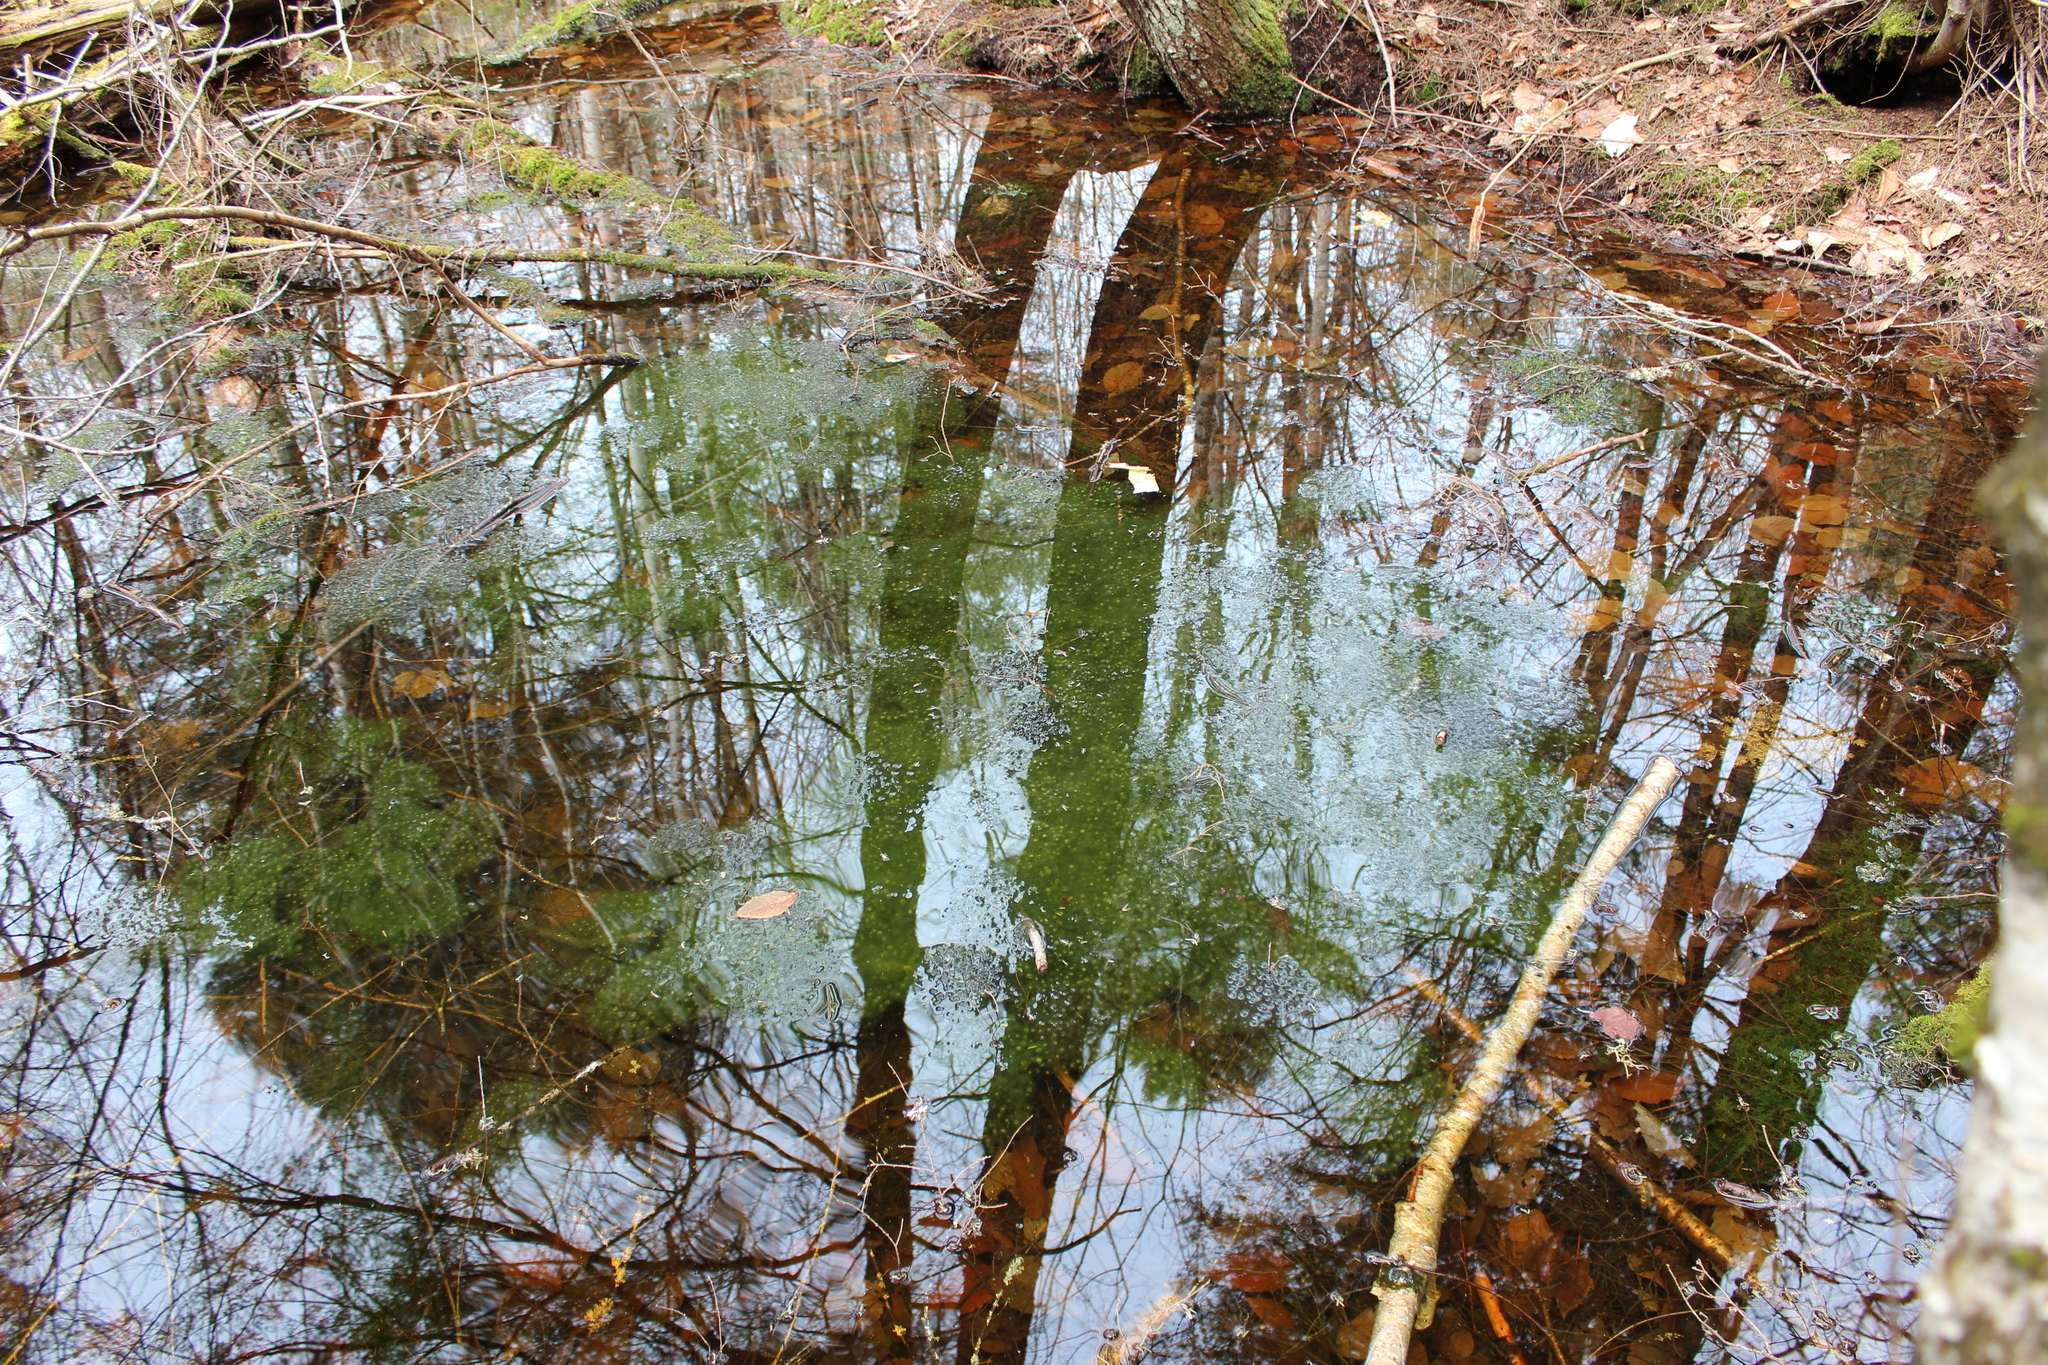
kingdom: Animalia
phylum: Chordata
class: Amphibia
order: Anura
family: Ranidae
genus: Lithobates
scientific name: Lithobates sylvaticus
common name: Wood frog
